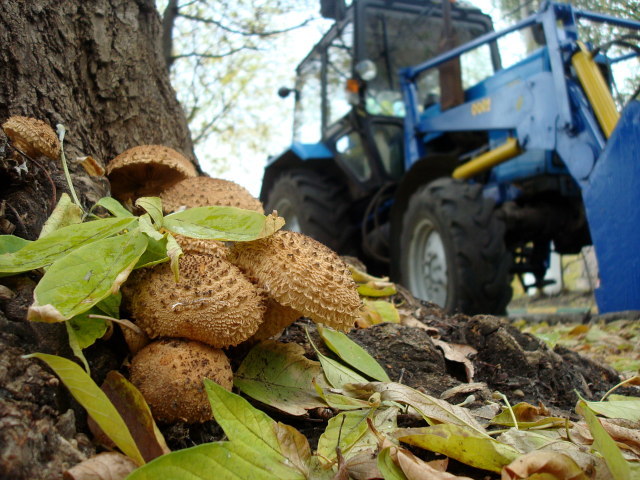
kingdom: Fungi
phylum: Basidiomycota
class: Agaricomycetes
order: Agaricales
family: Strophariaceae
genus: Pholiota
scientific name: Pholiota squarrosa
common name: Shaggy pholiota
